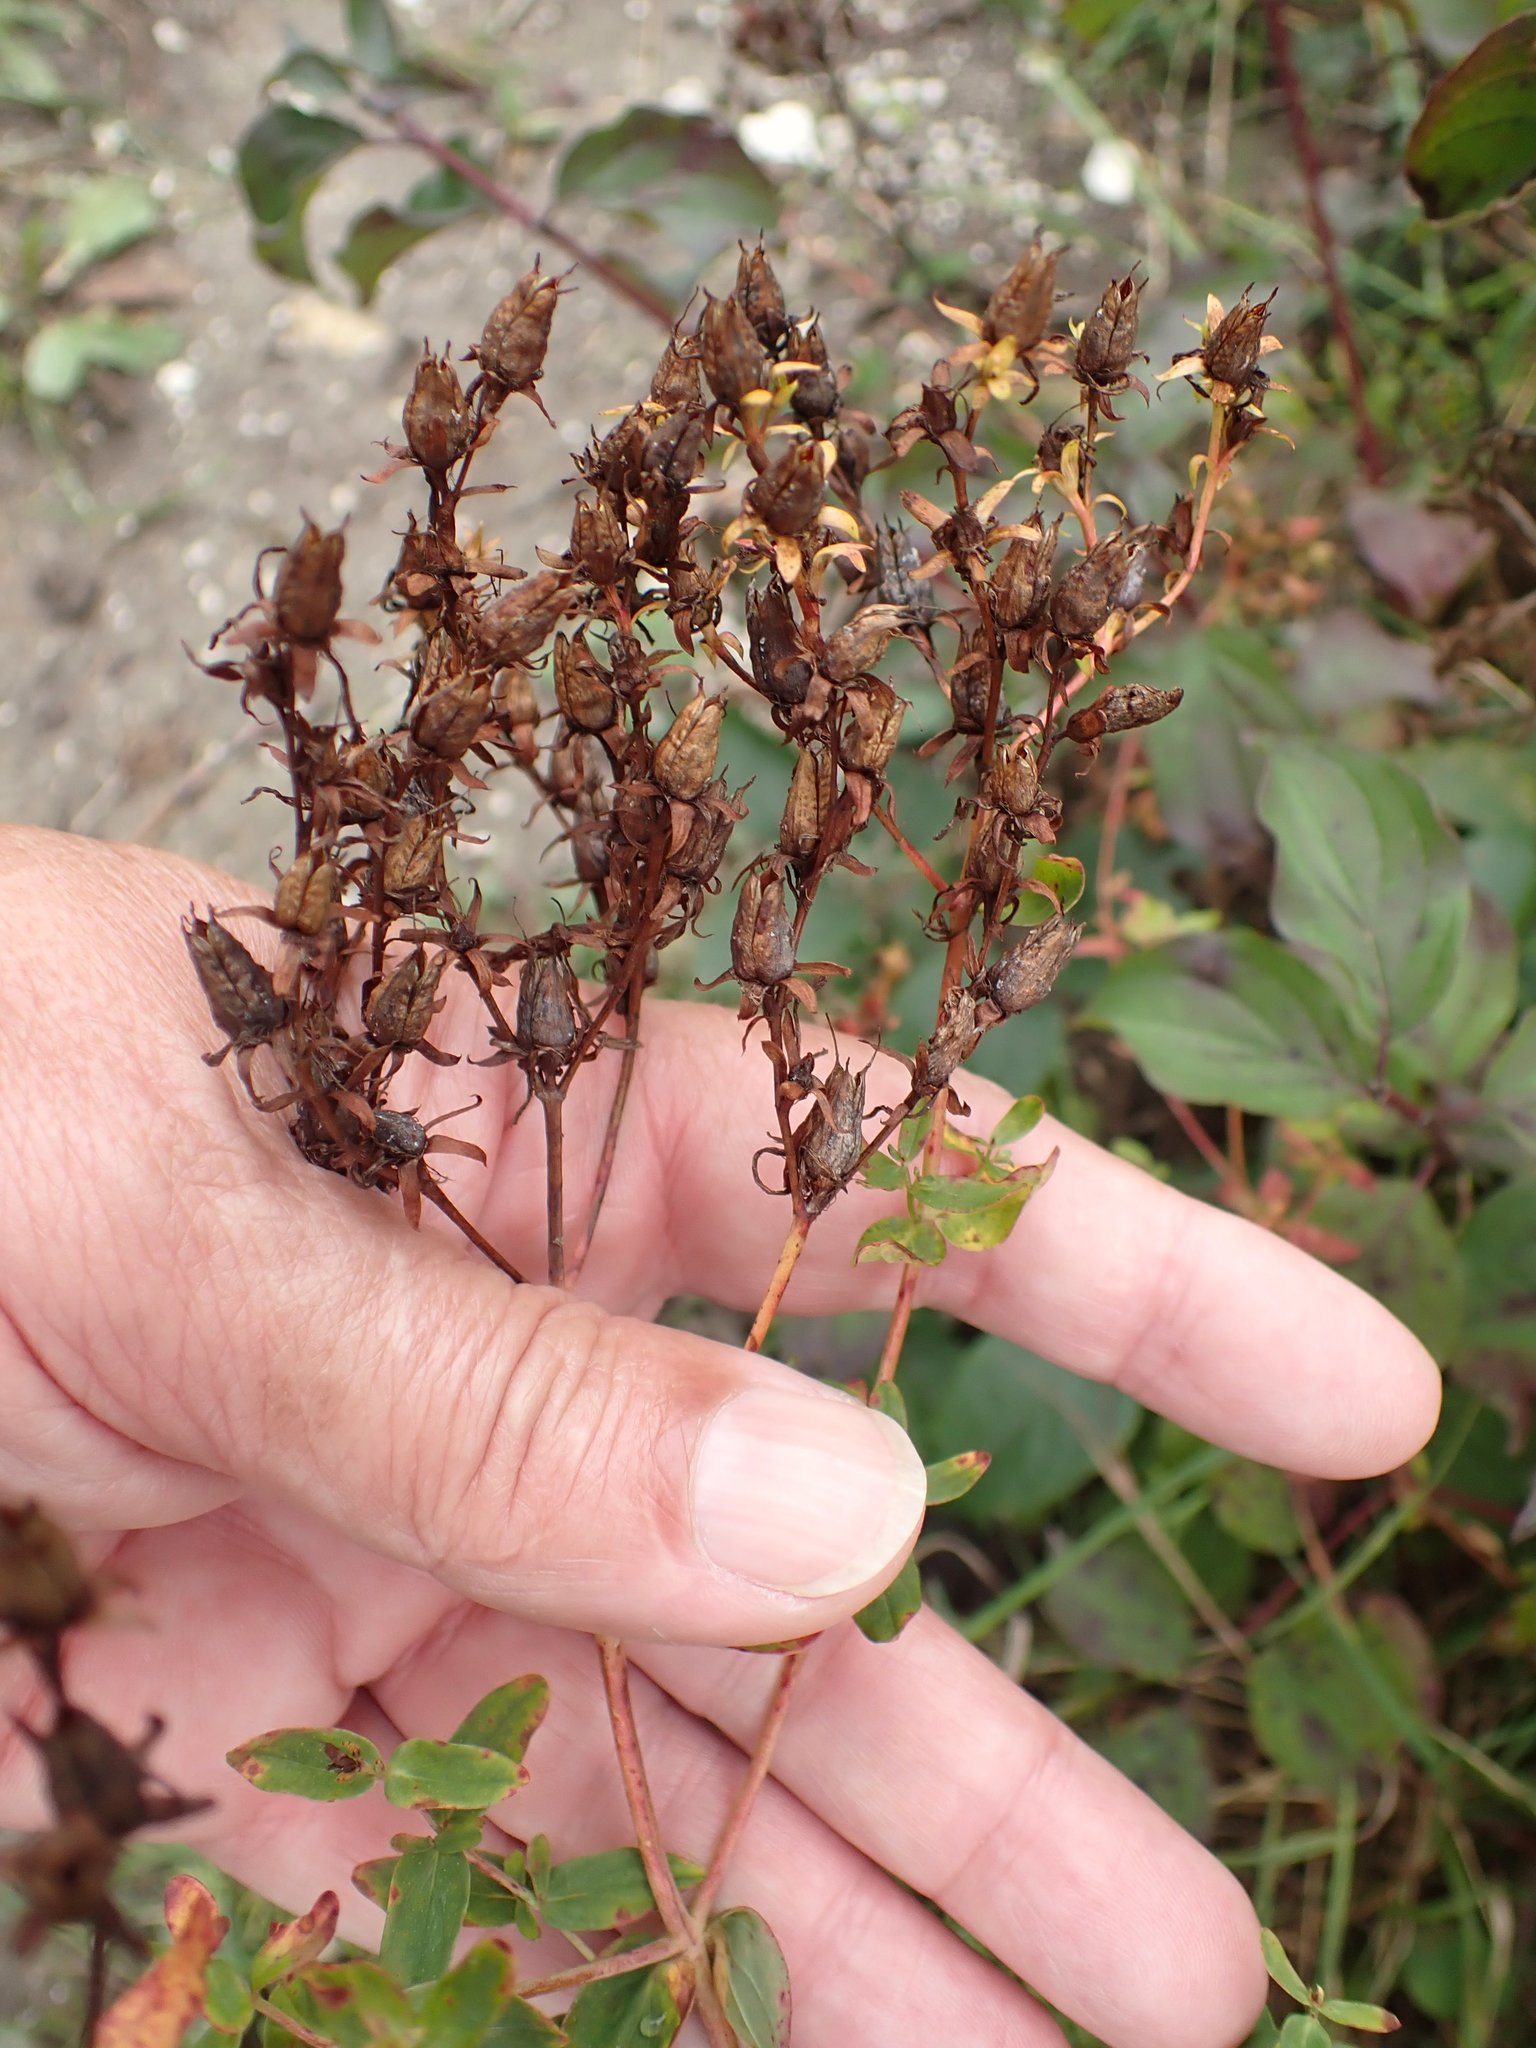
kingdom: Plantae
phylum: Tracheophyta
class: Magnoliopsida
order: Malpighiales
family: Hypericaceae
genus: Hypericum
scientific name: Hypericum perforatum
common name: Common st. johnswort
